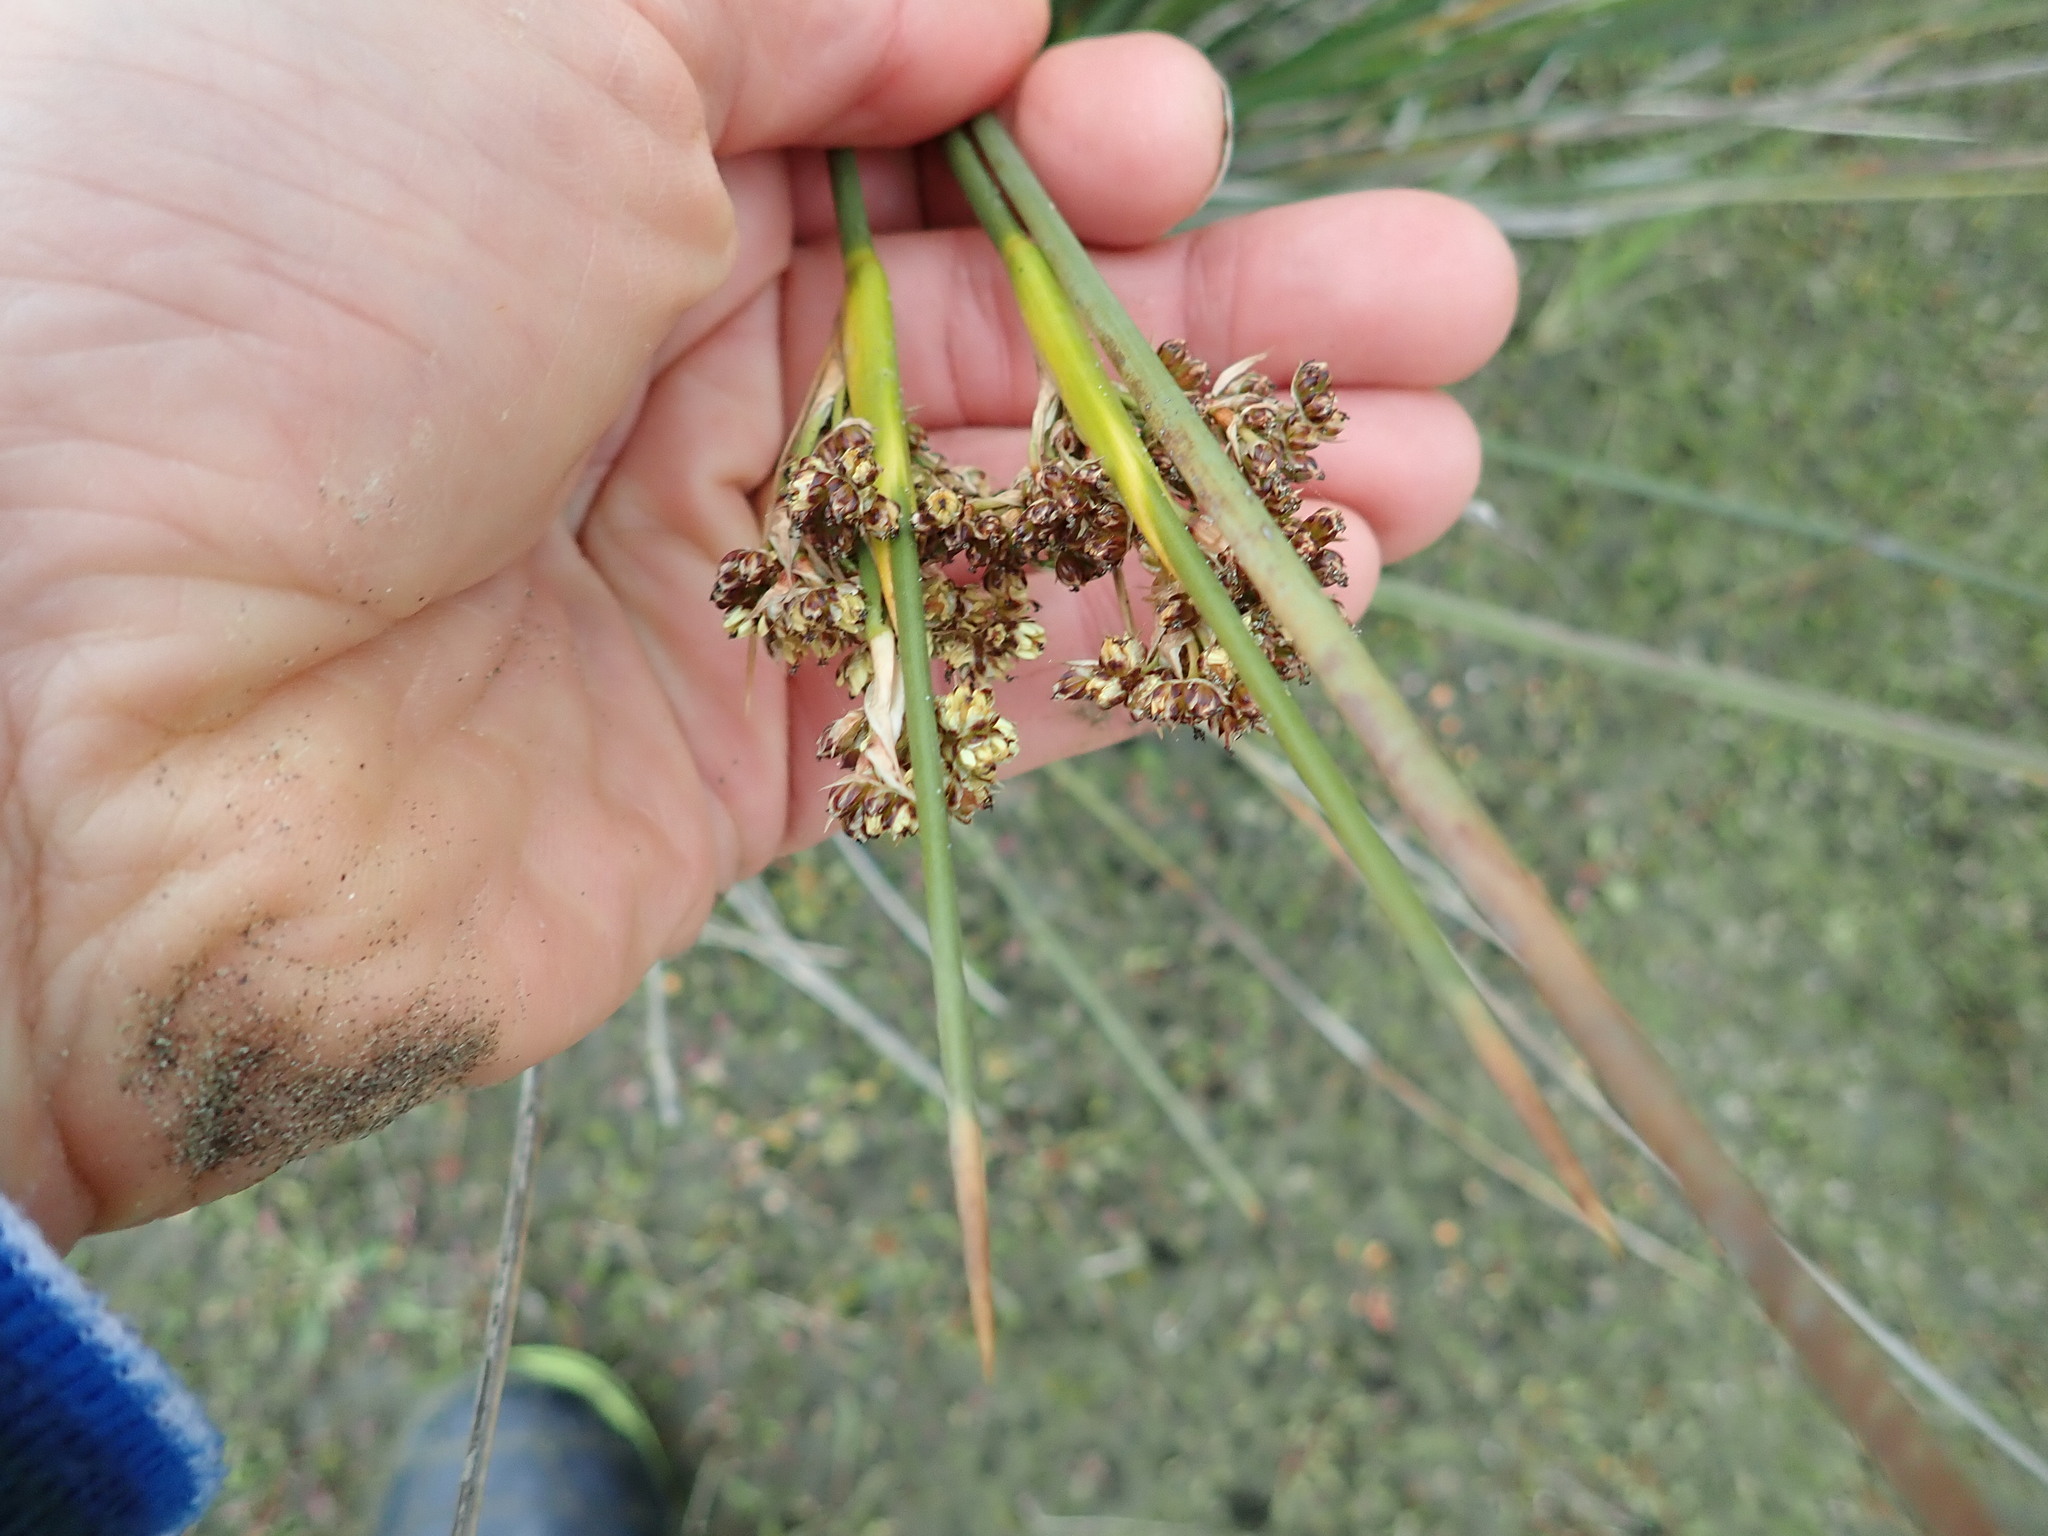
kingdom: Plantae
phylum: Tracheophyta
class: Liliopsida
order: Poales
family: Juncaceae
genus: Juncus
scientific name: Juncus acutus
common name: Sharp rush
